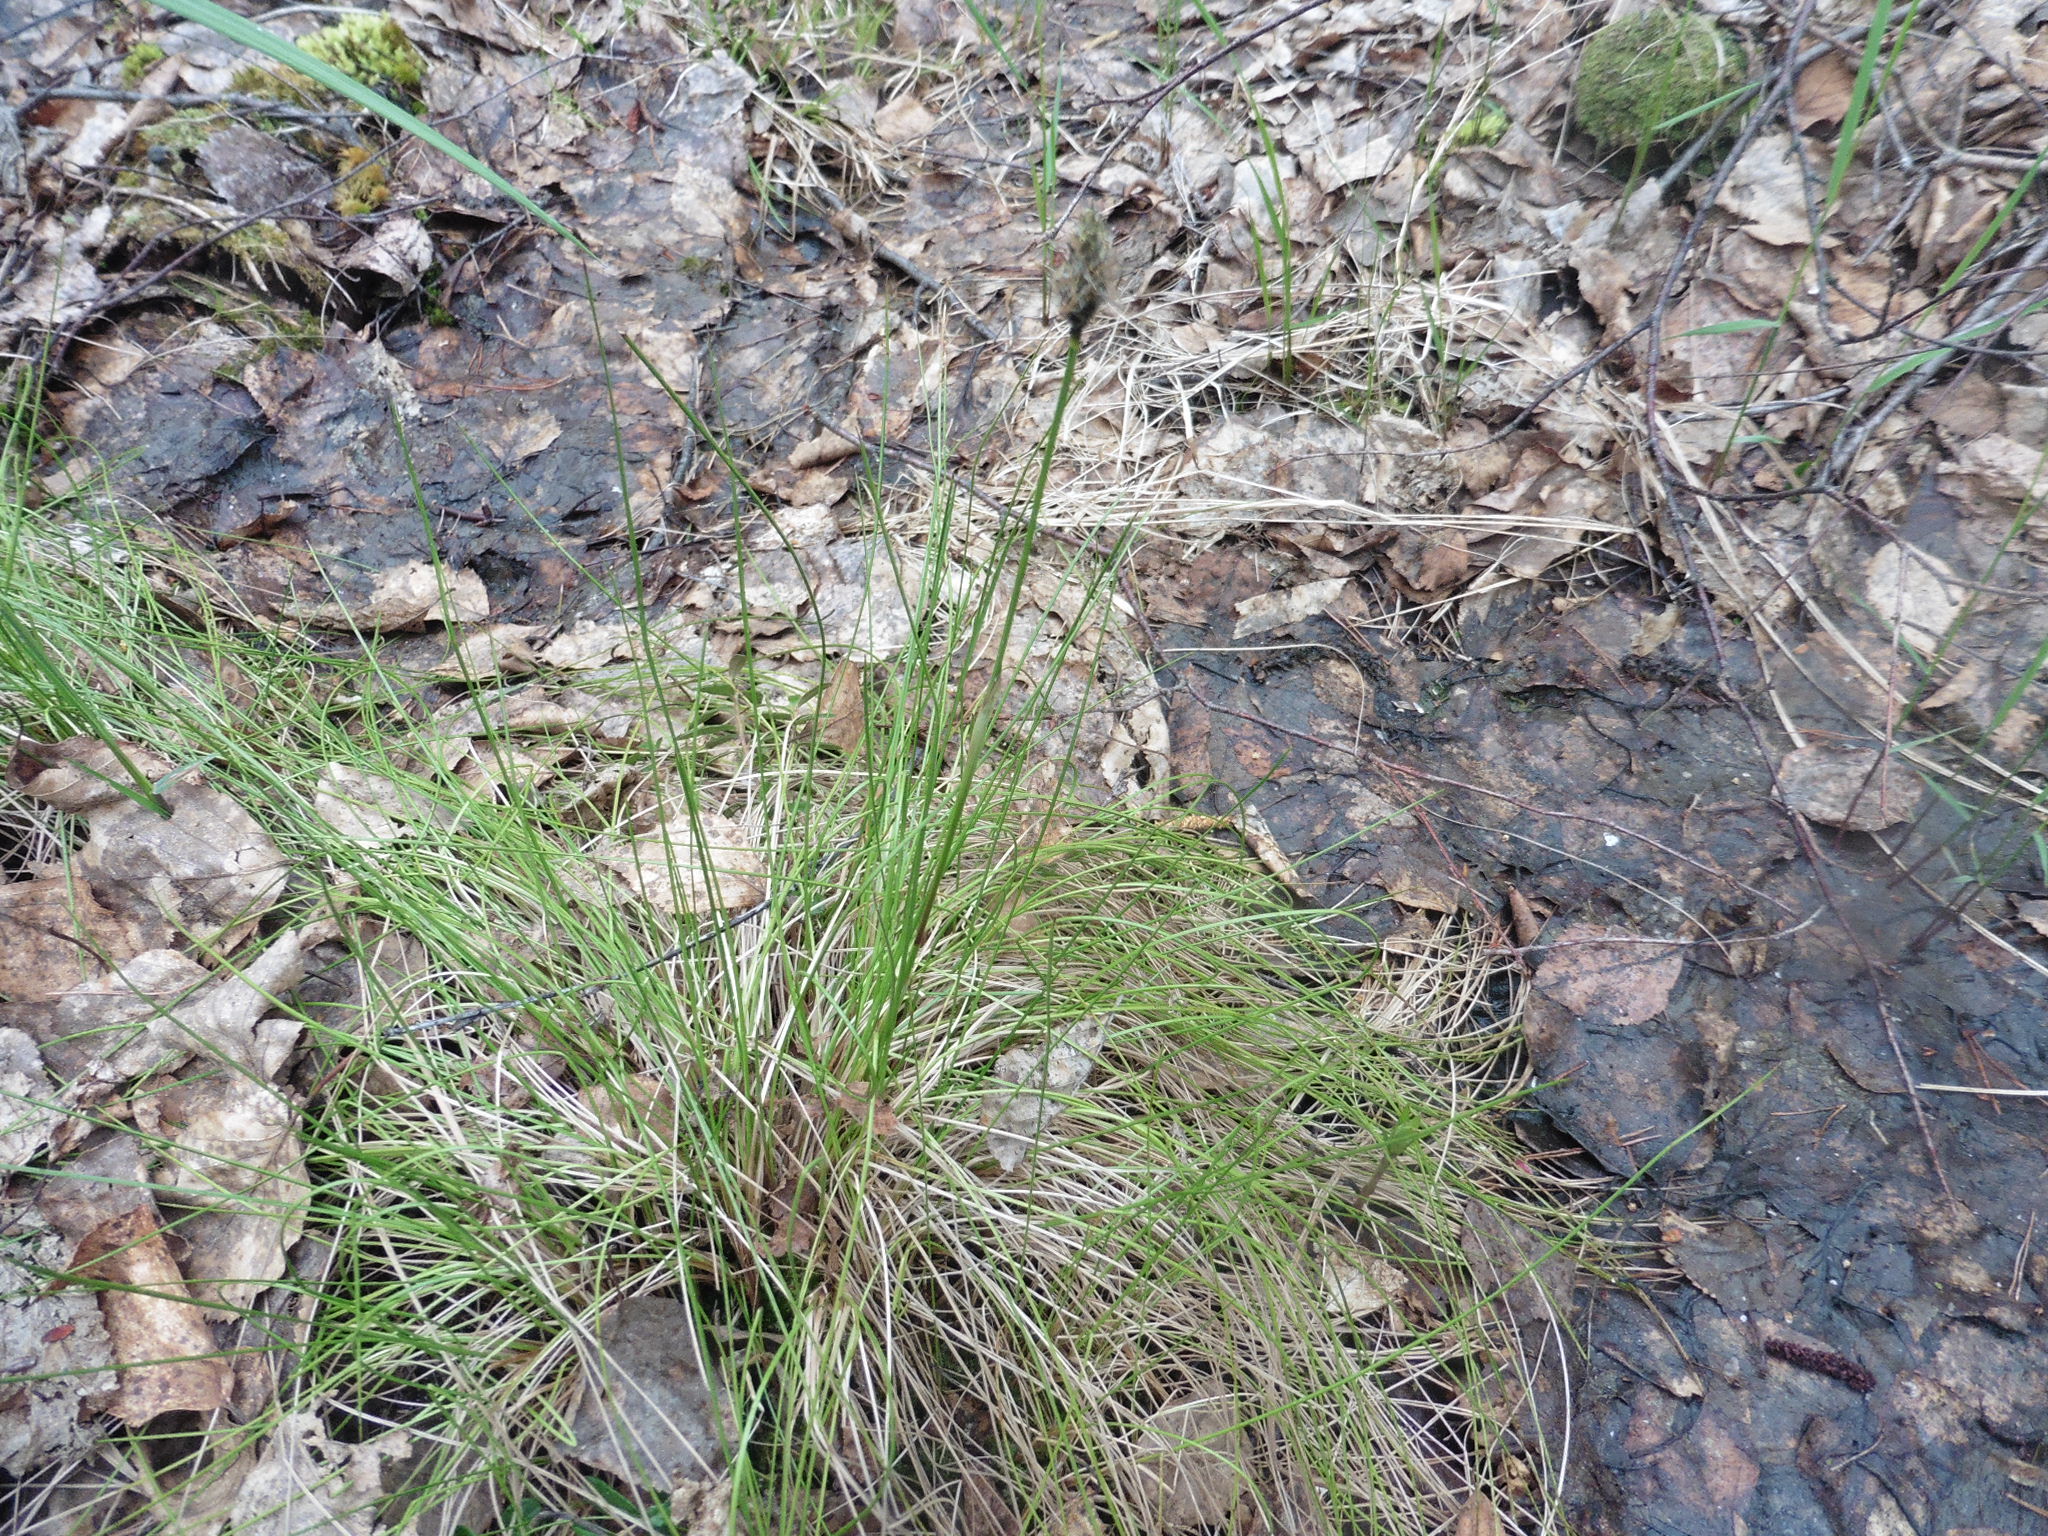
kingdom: Plantae
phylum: Tracheophyta
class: Liliopsida
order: Poales
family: Cyperaceae
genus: Eriophorum
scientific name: Eriophorum vaginatum
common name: Hare's-tail cottongrass
